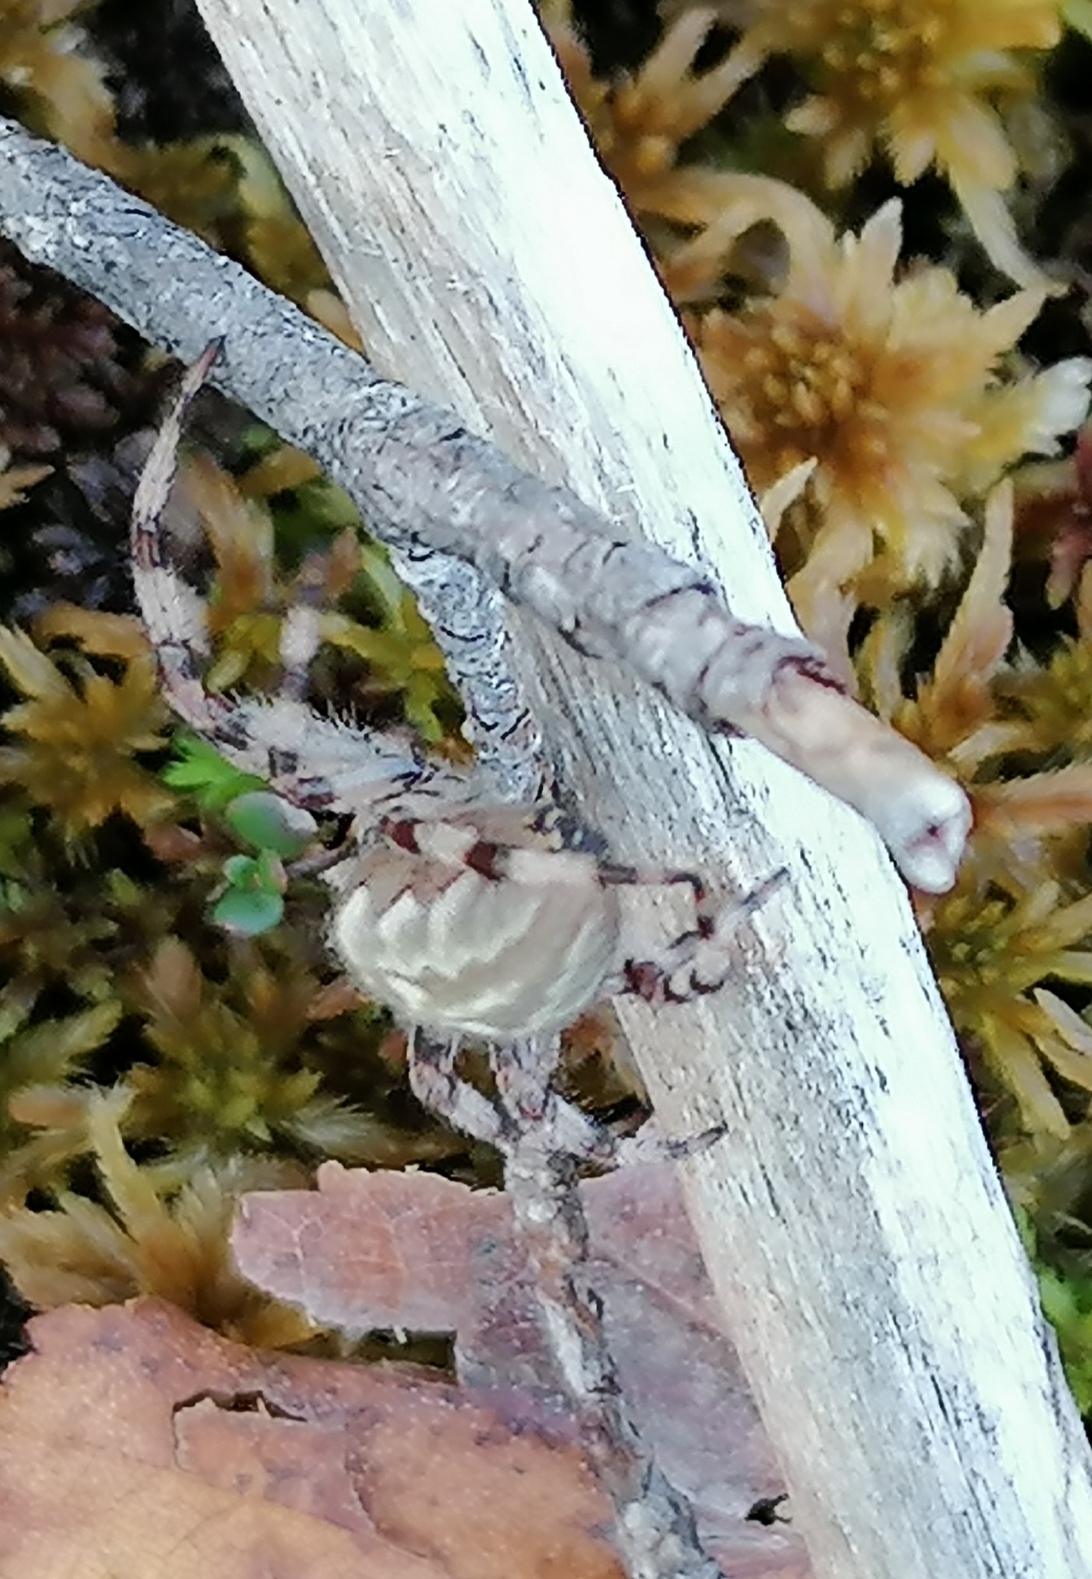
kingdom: Animalia
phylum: Arthropoda
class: Arachnida
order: Araneae
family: Araneidae
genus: Araneus
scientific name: Araneus quadratus
